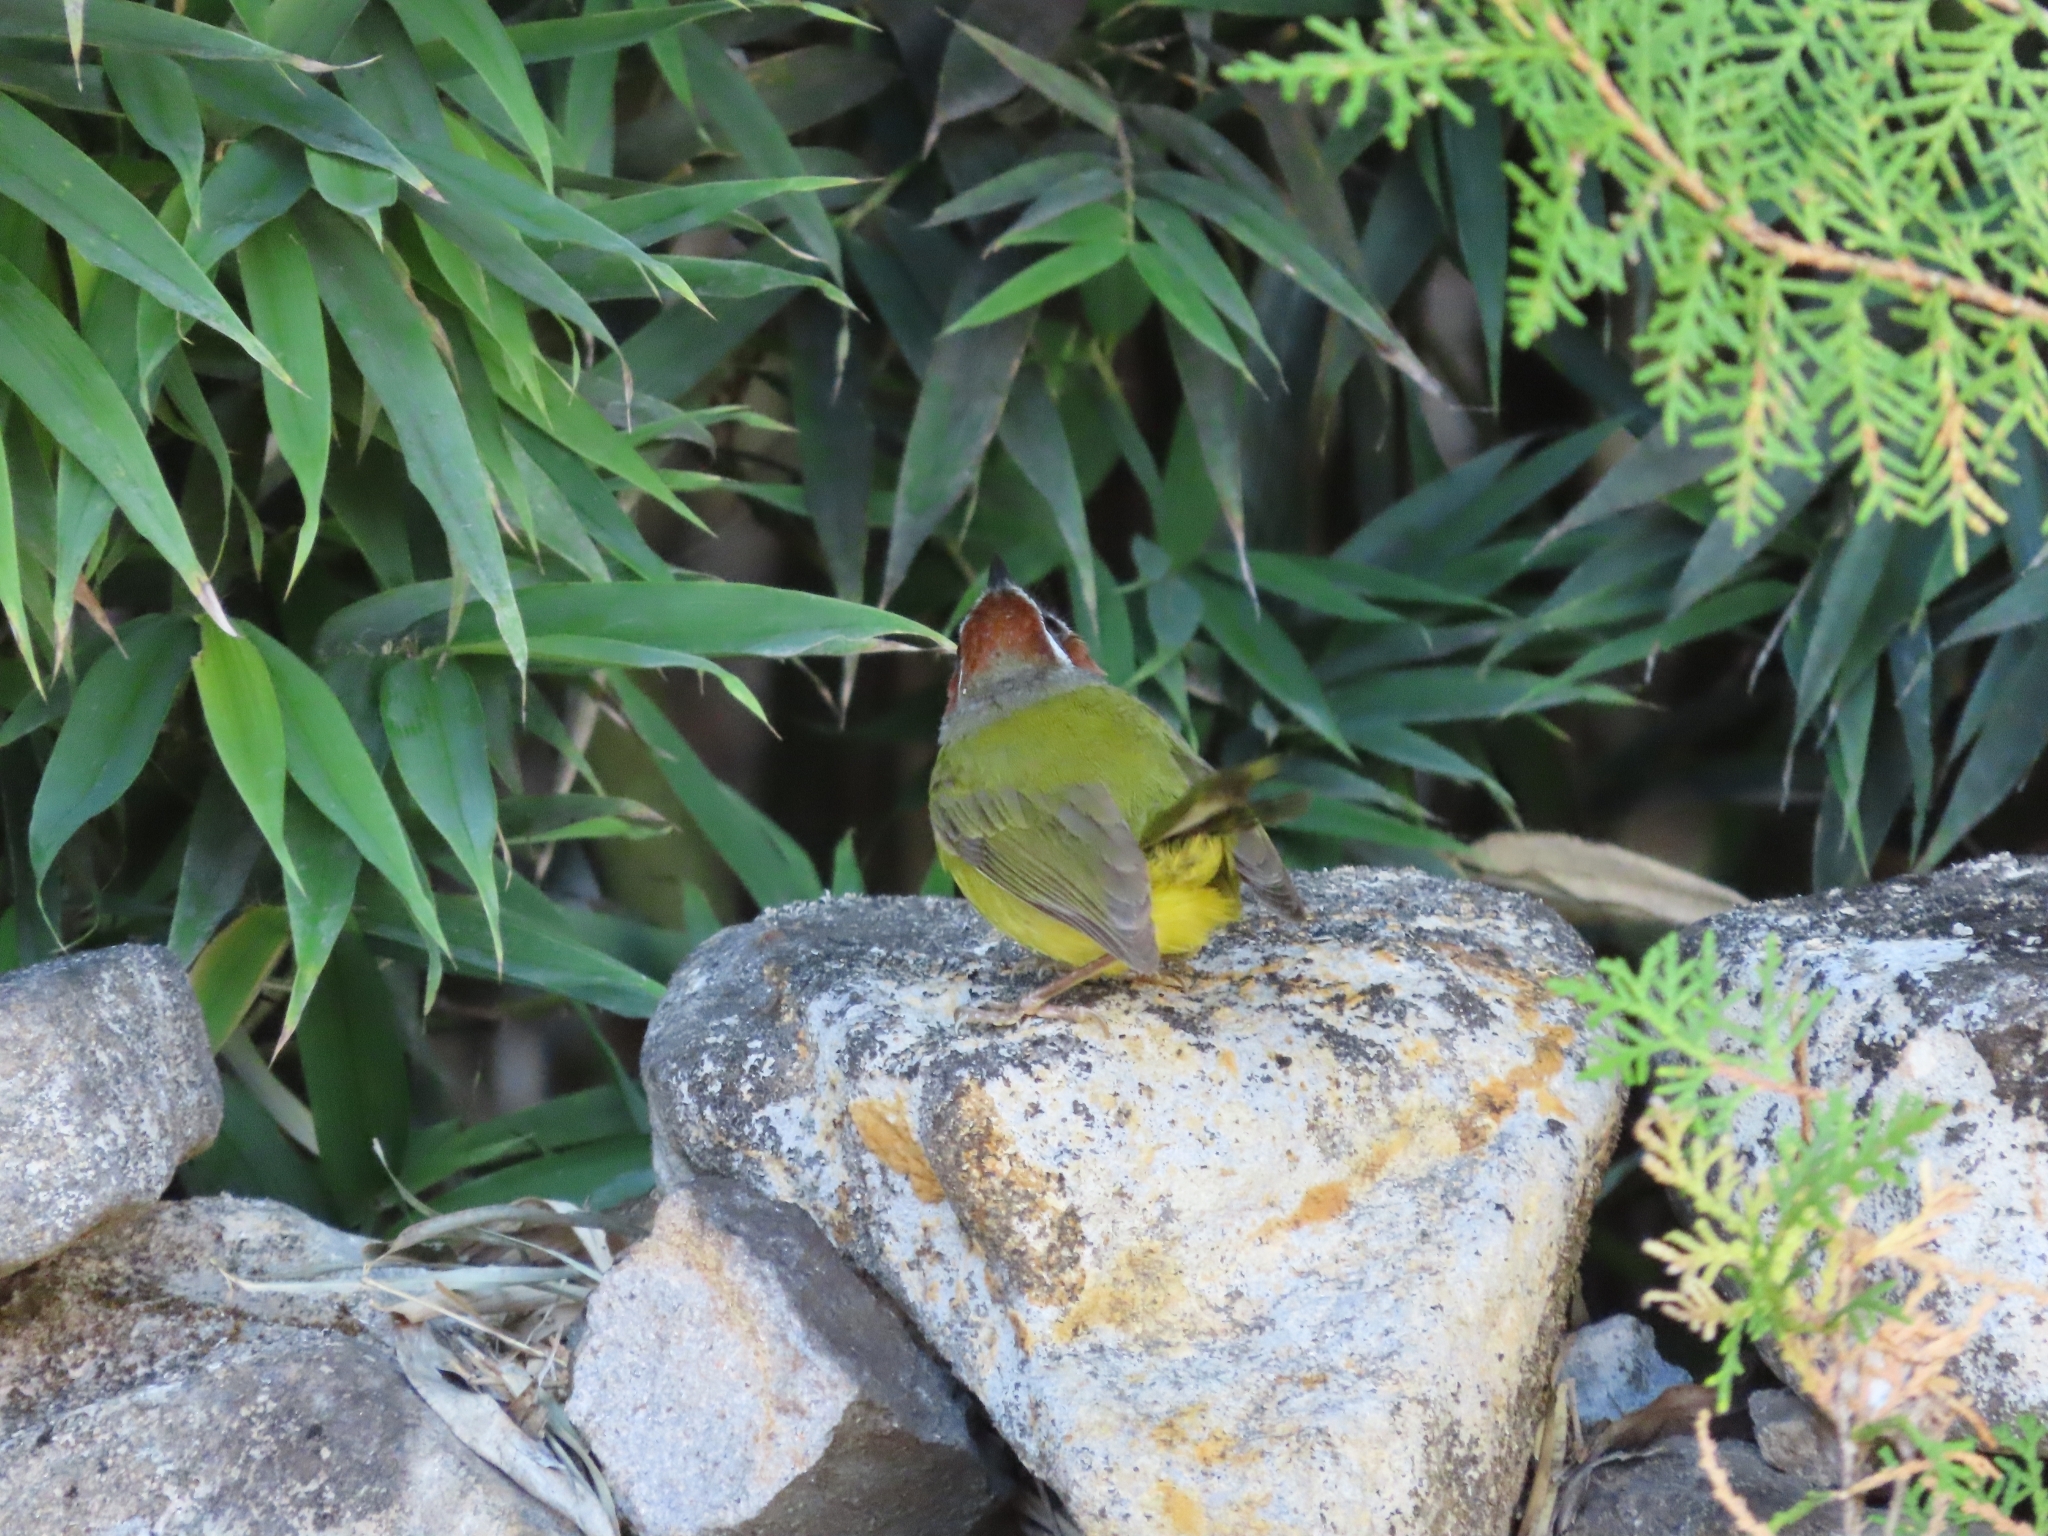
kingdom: Animalia
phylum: Chordata
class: Aves
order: Passeriformes
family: Parulidae
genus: Basileuterus
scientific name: Basileuterus rufifrons
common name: Rufous-capped warbler
